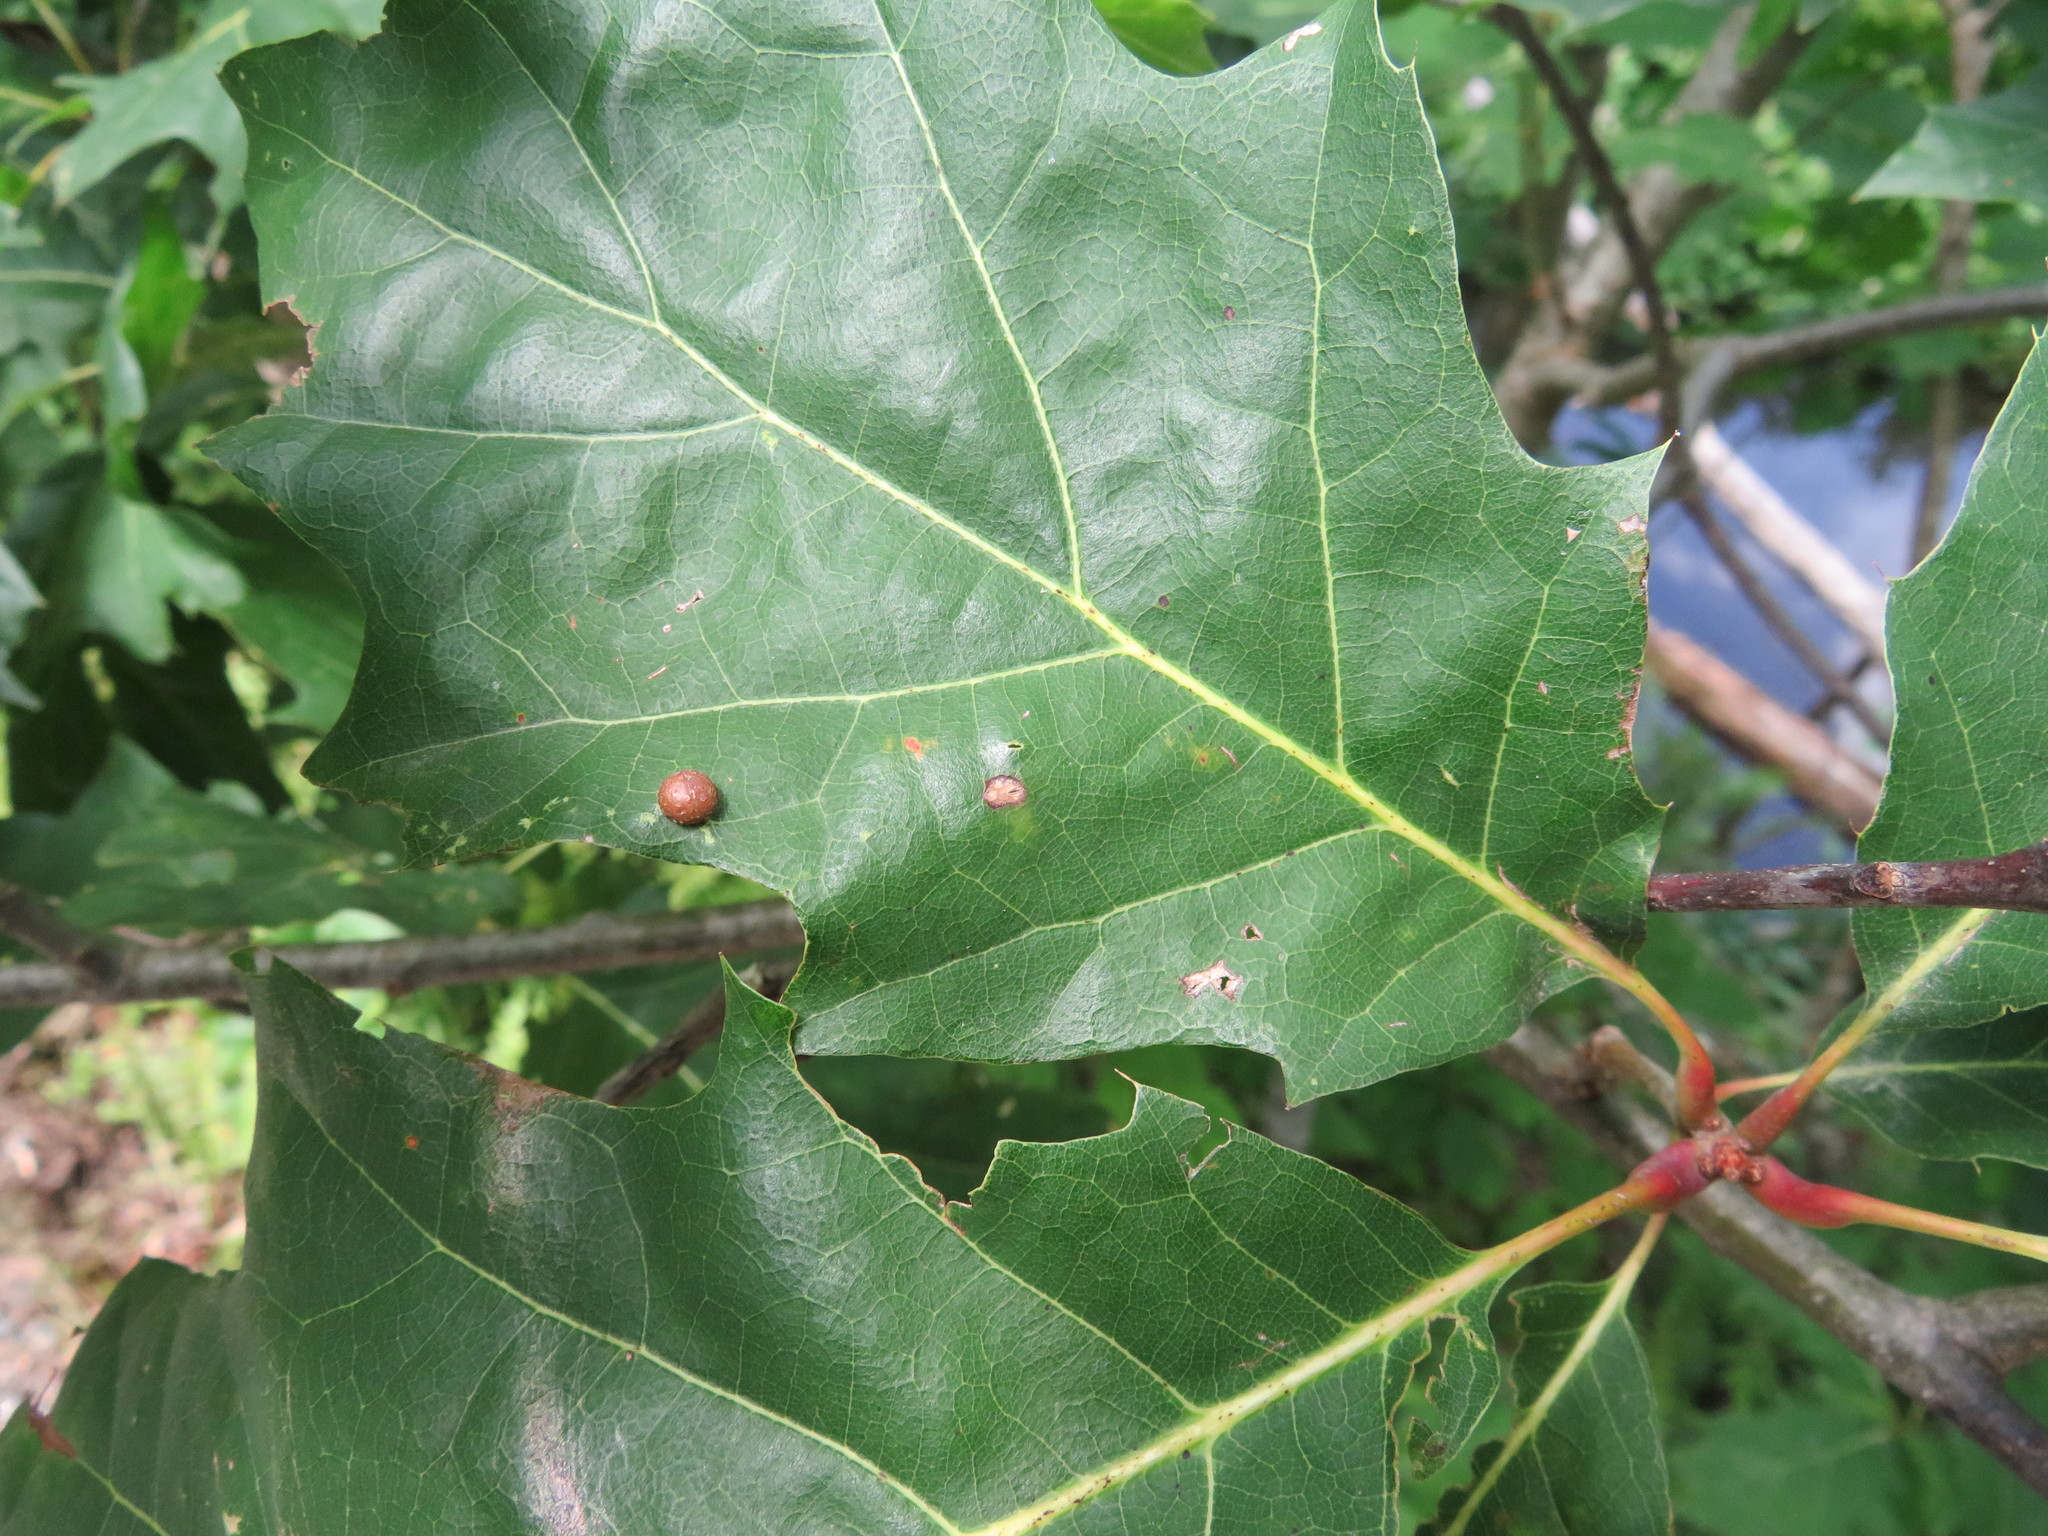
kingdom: Animalia
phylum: Arthropoda
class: Insecta
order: Diptera
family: Cecidomyiidae
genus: Polystepha
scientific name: Polystepha pilulae
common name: Oak leaf gall midge
